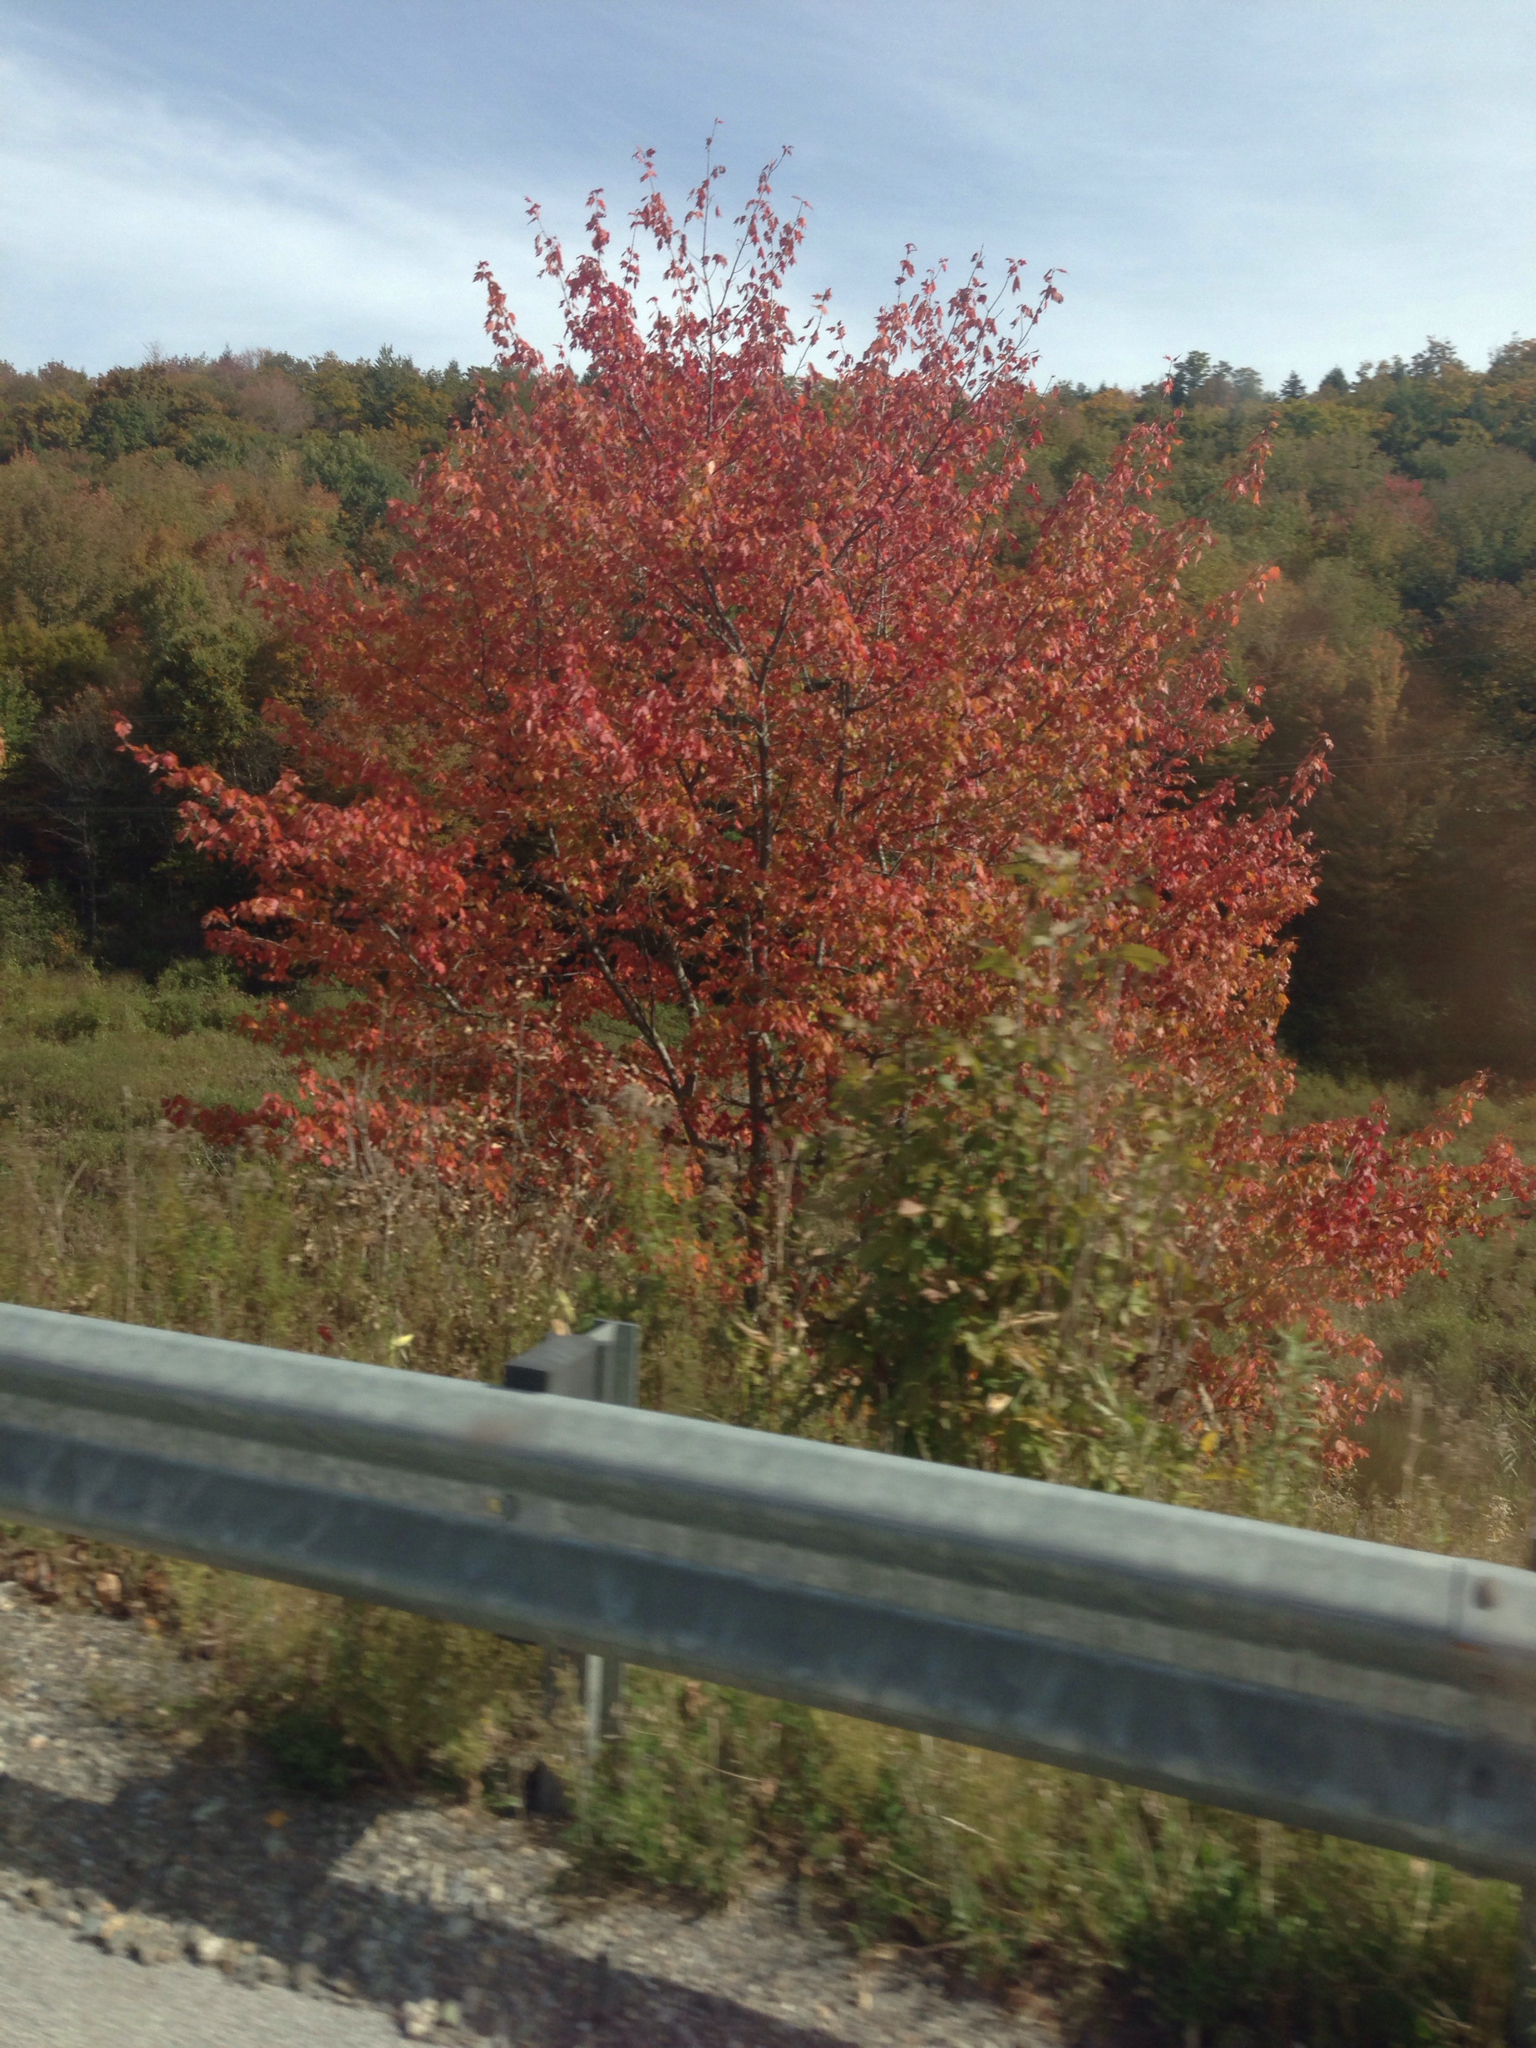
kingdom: Plantae
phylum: Tracheophyta
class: Magnoliopsida
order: Sapindales
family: Sapindaceae
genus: Acer
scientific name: Acer rubrum
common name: Red maple
